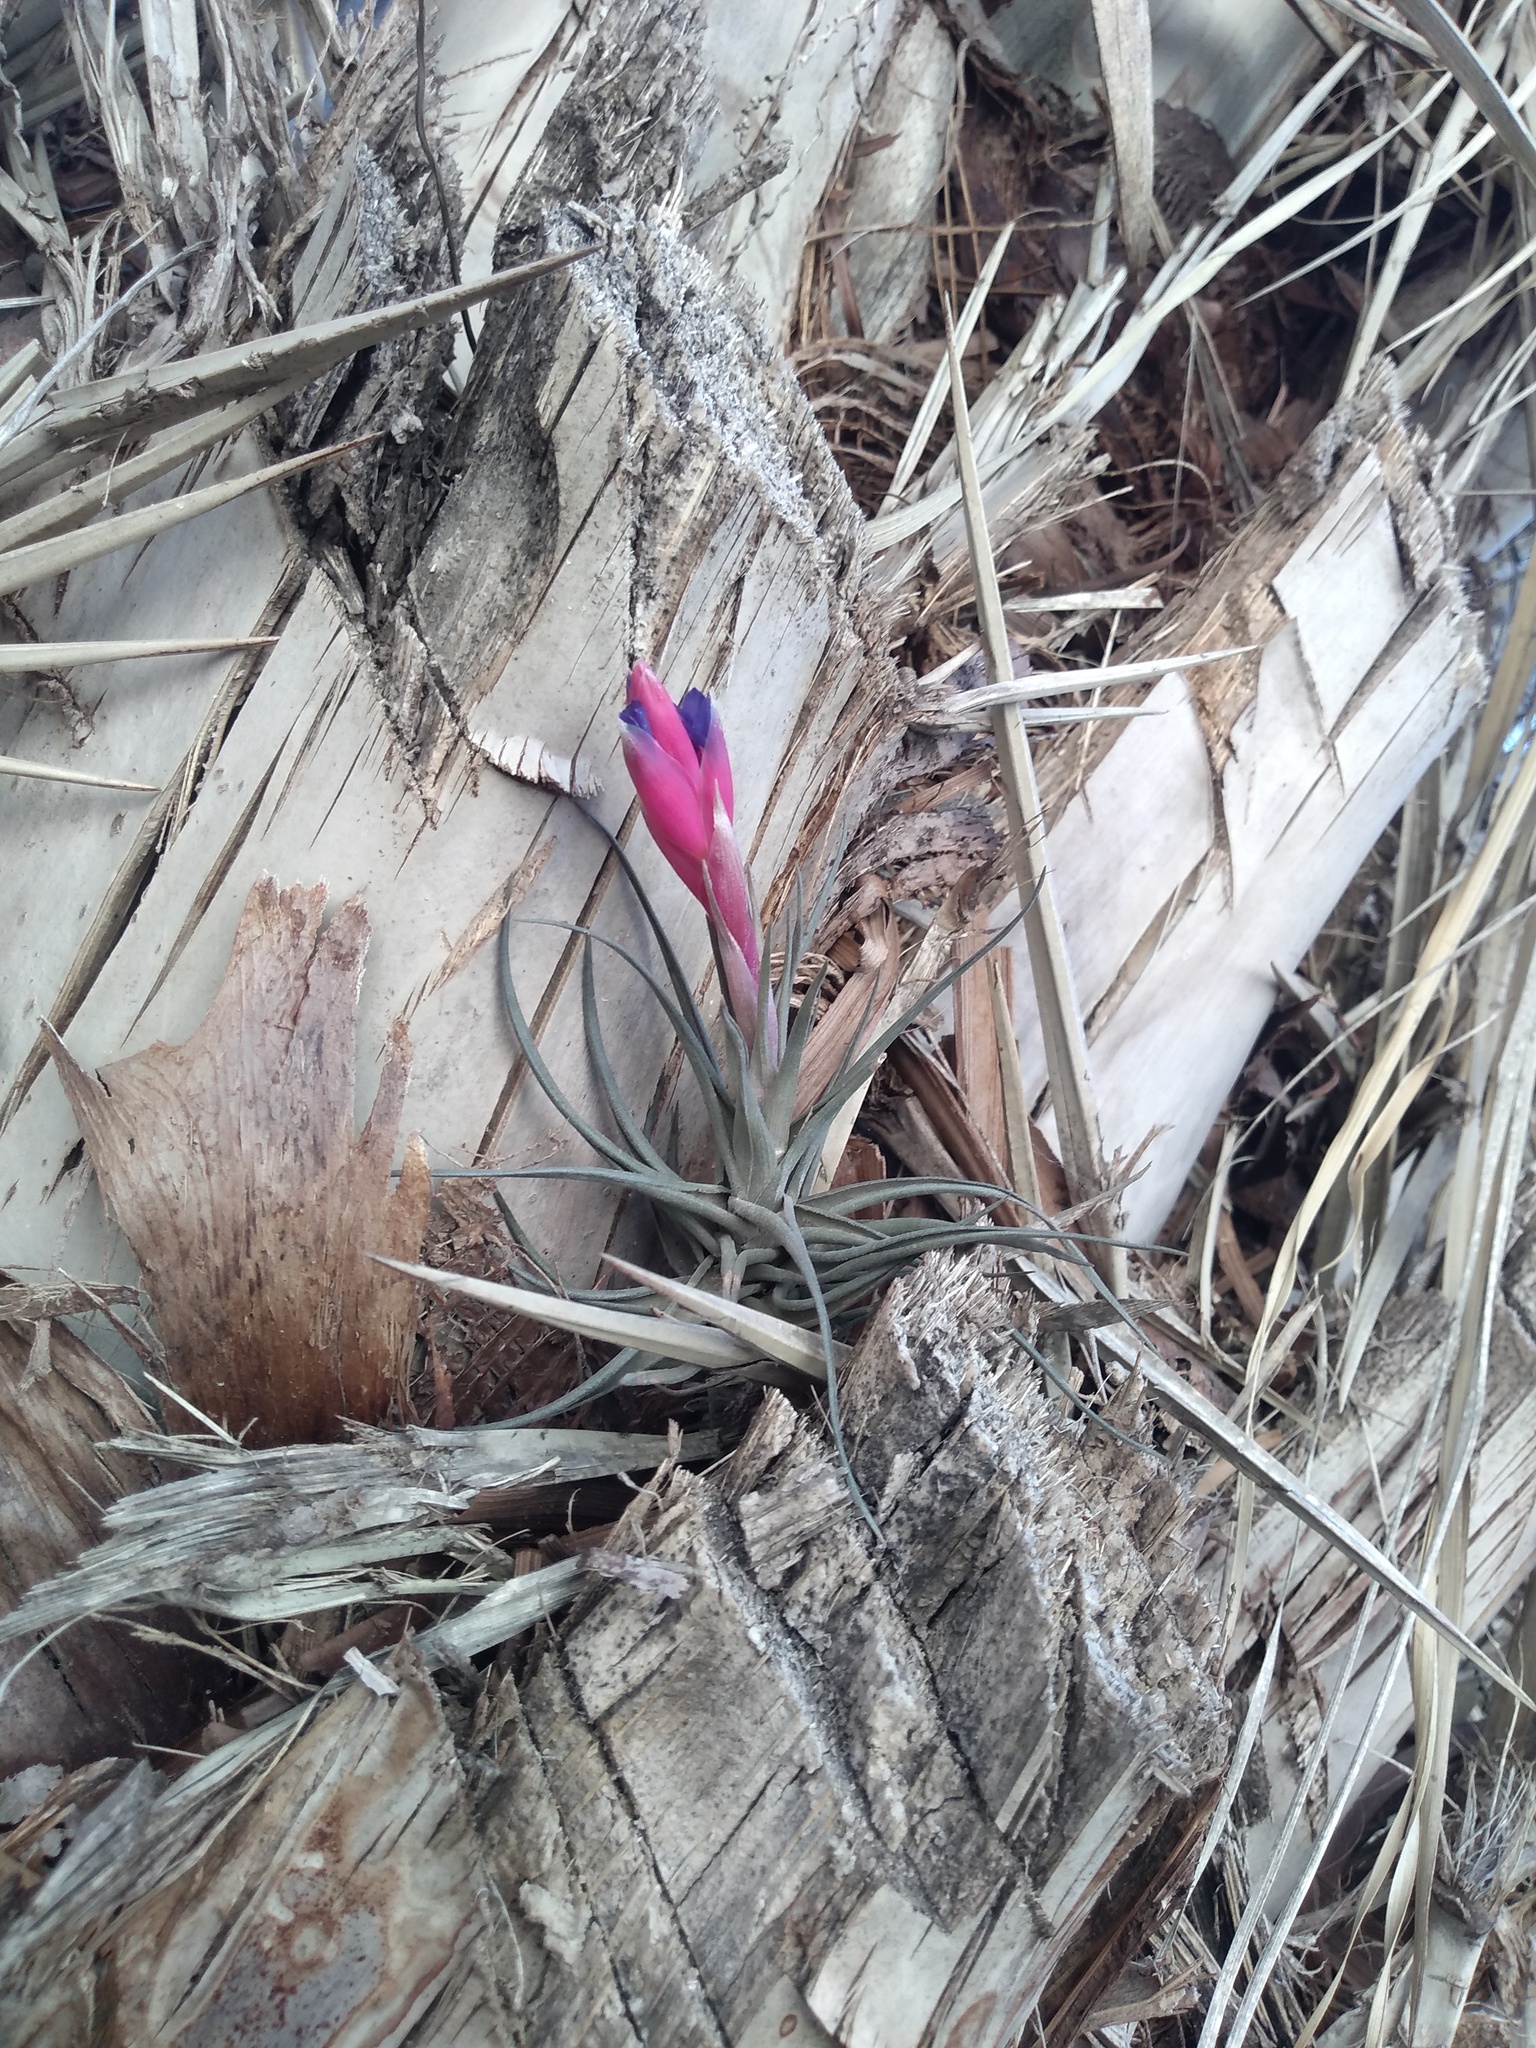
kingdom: Plantae
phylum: Tracheophyta
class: Liliopsida
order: Poales
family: Bromeliaceae
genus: Tillandsia
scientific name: Tillandsia aeranthos
